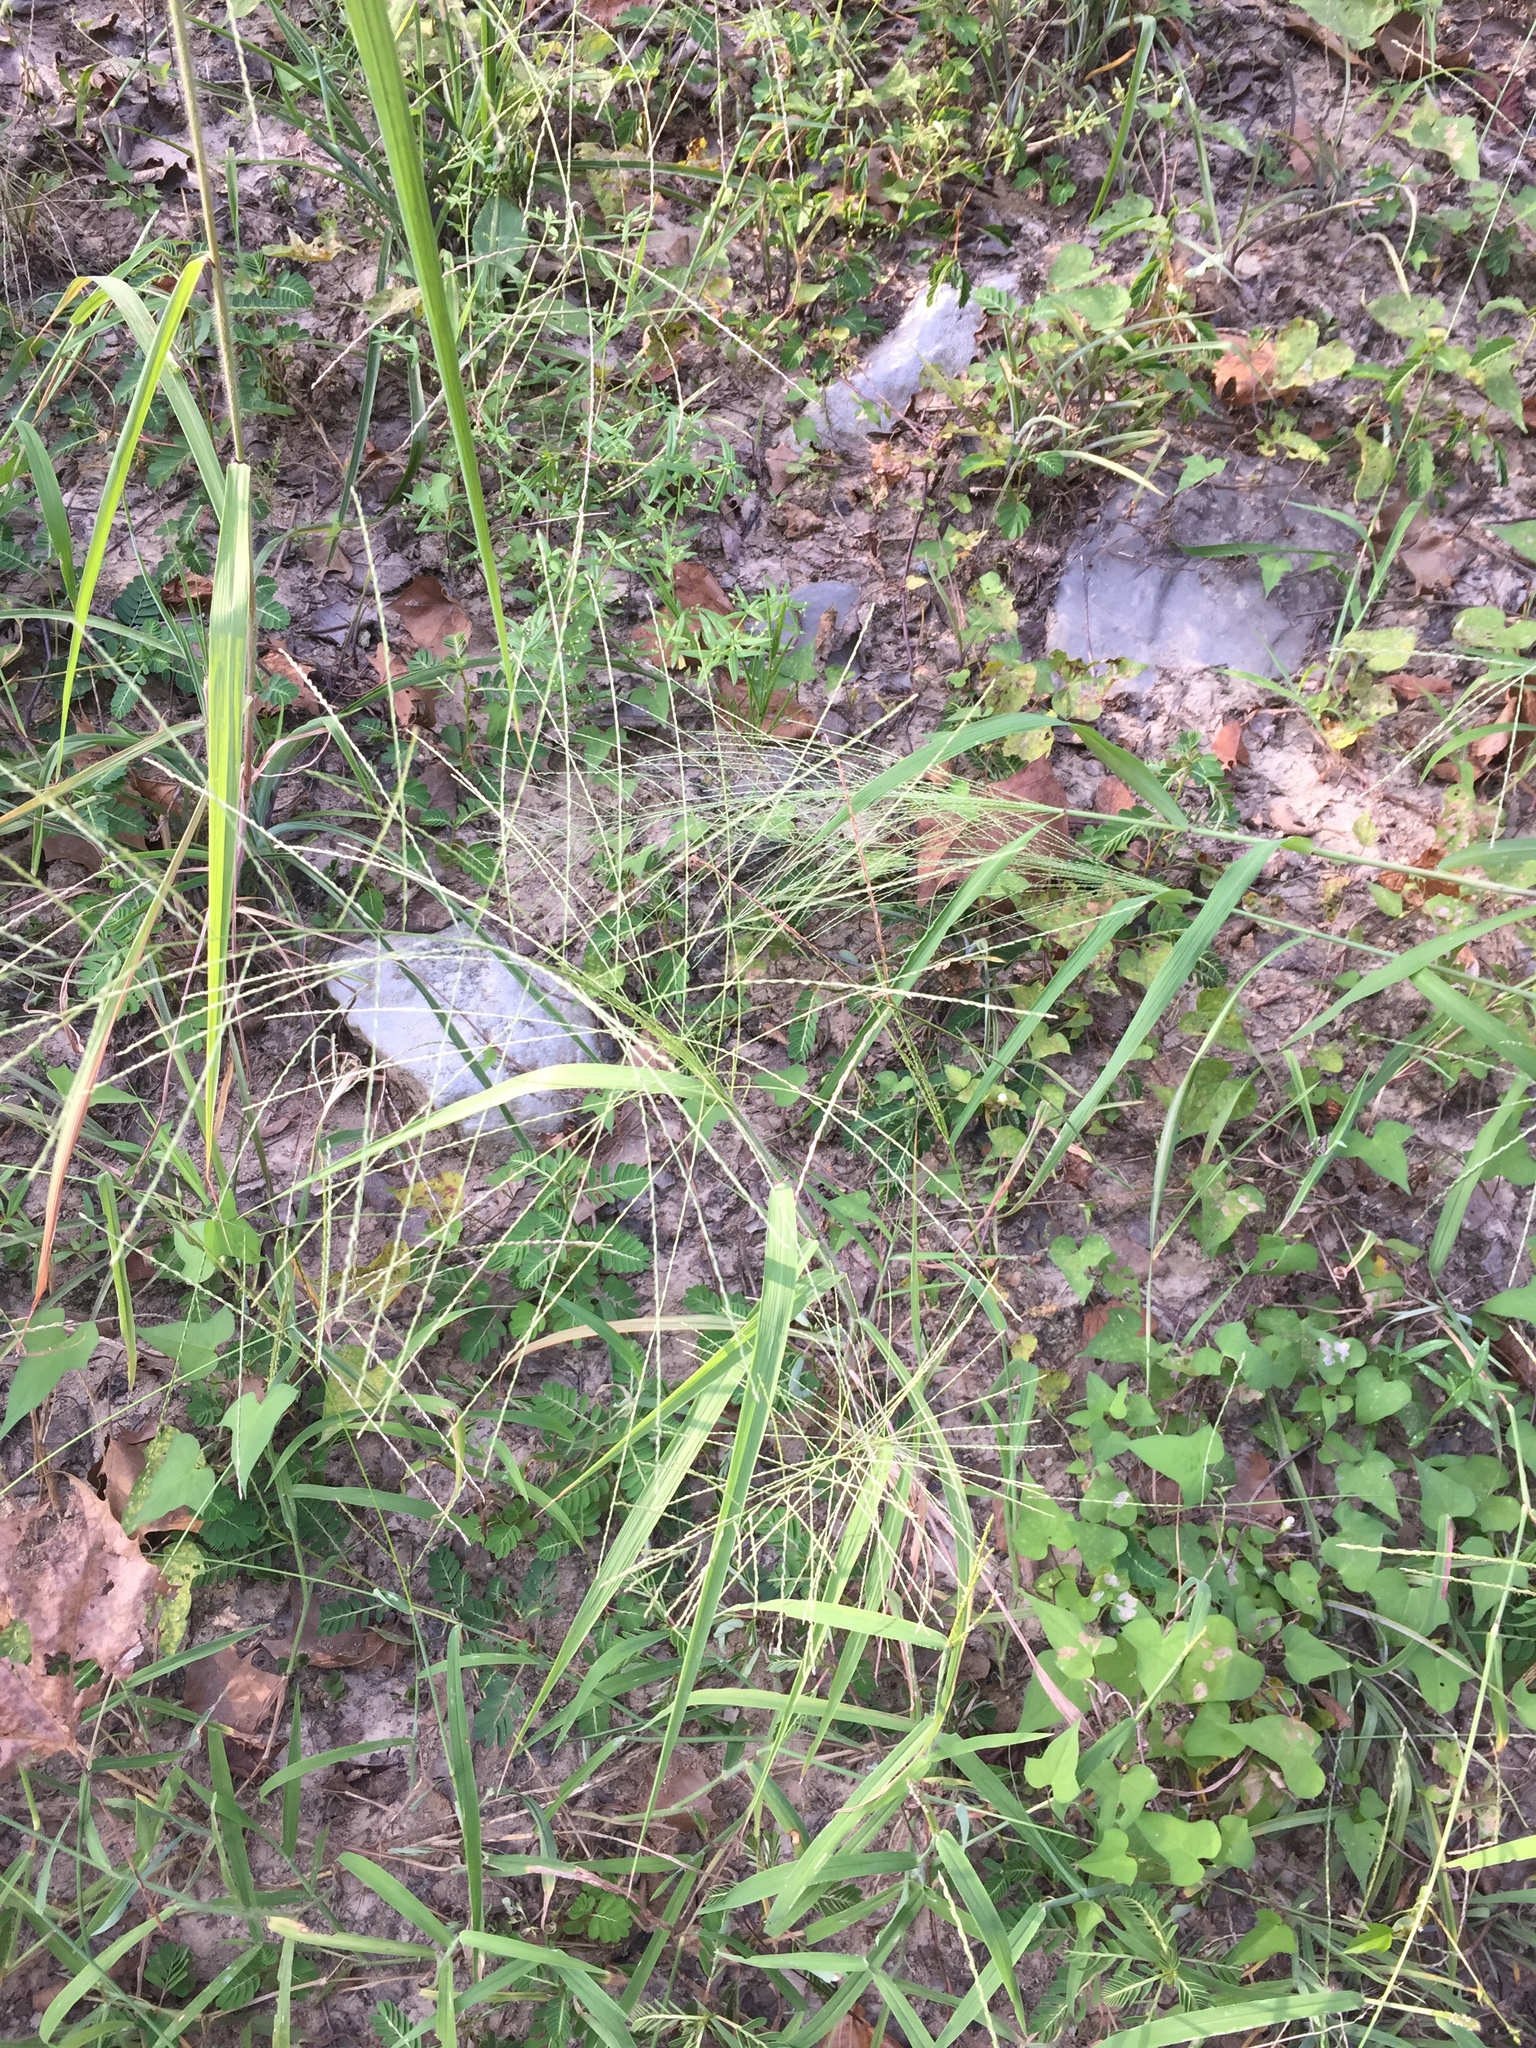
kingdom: Plantae
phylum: Tracheophyta
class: Liliopsida
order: Poales
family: Poaceae
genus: Leptochloa
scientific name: Leptochloa panicea
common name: Mucronate sprangletop
